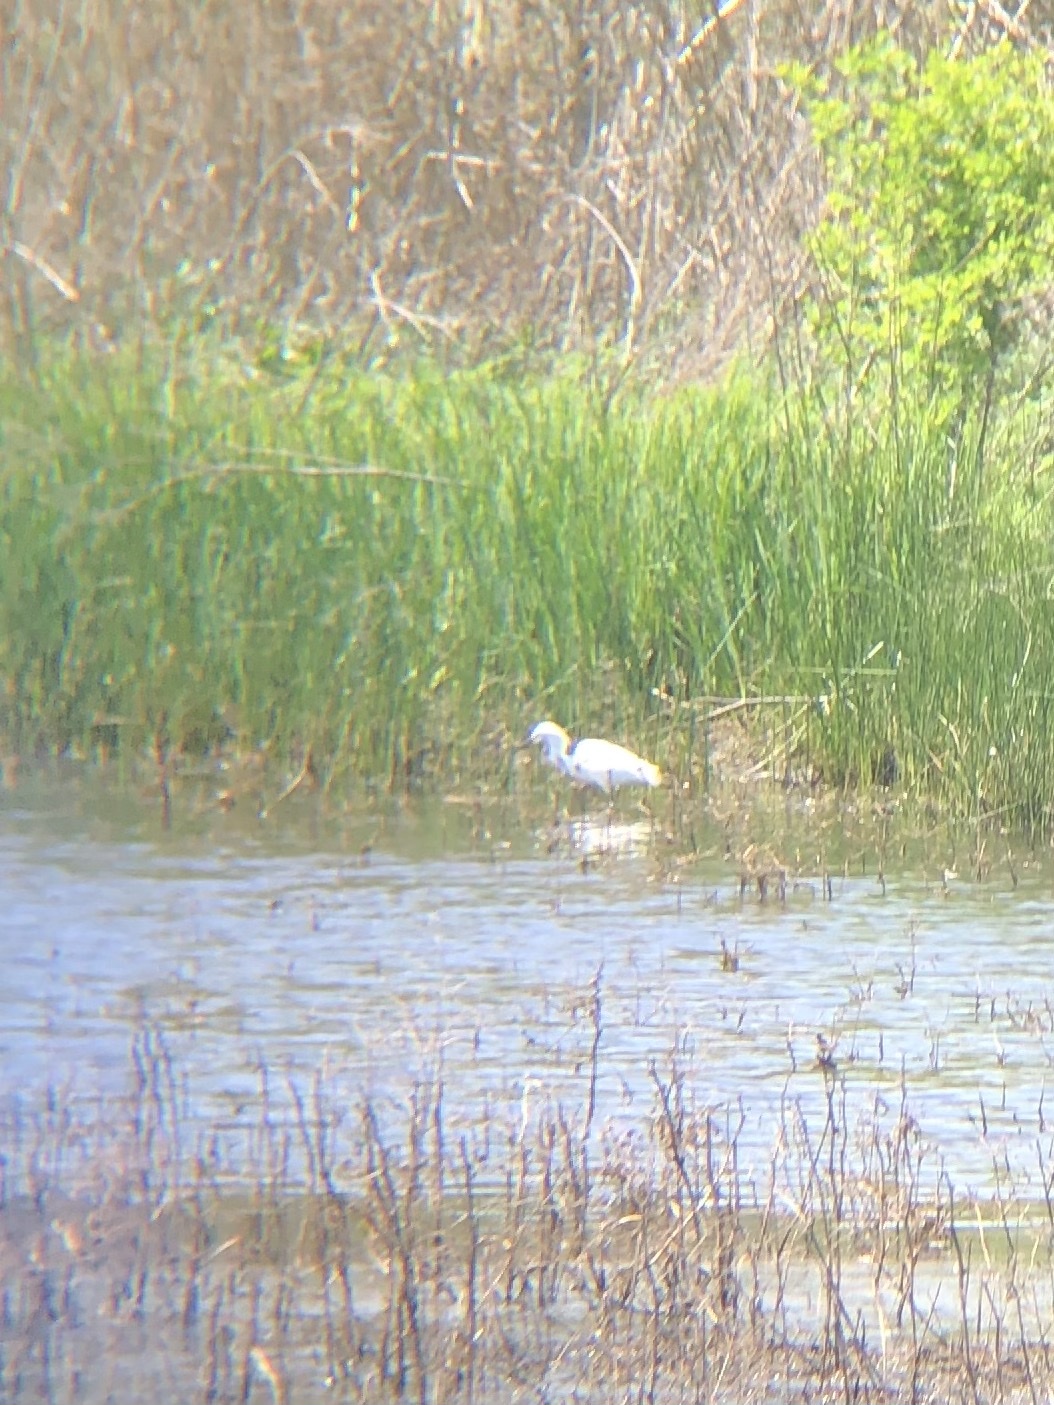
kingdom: Animalia
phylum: Chordata
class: Aves
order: Pelecaniformes
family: Ardeidae
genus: Egretta
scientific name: Egretta thula
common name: Snowy egret
